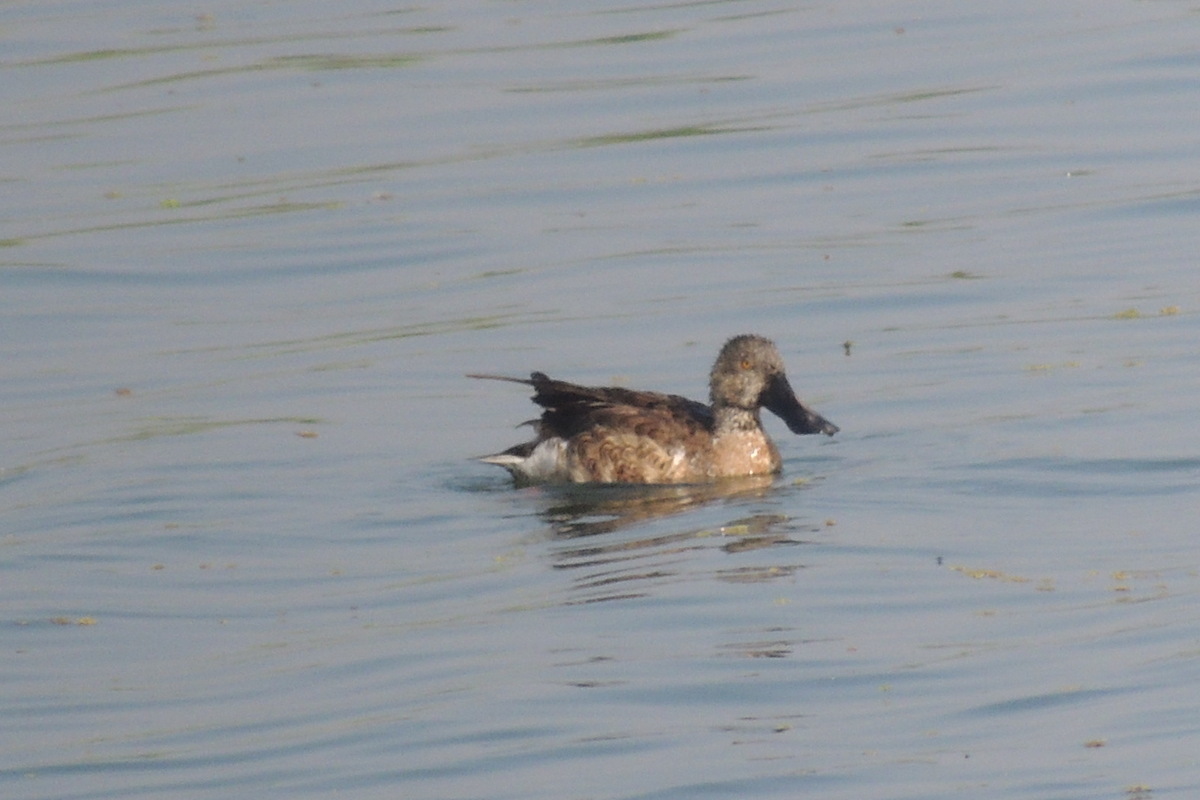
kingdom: Animalia
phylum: Chordata
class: Aves
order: Anseriformes
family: Anatidae
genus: Spatula
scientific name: Spatula clypeata
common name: Northern shoveler
